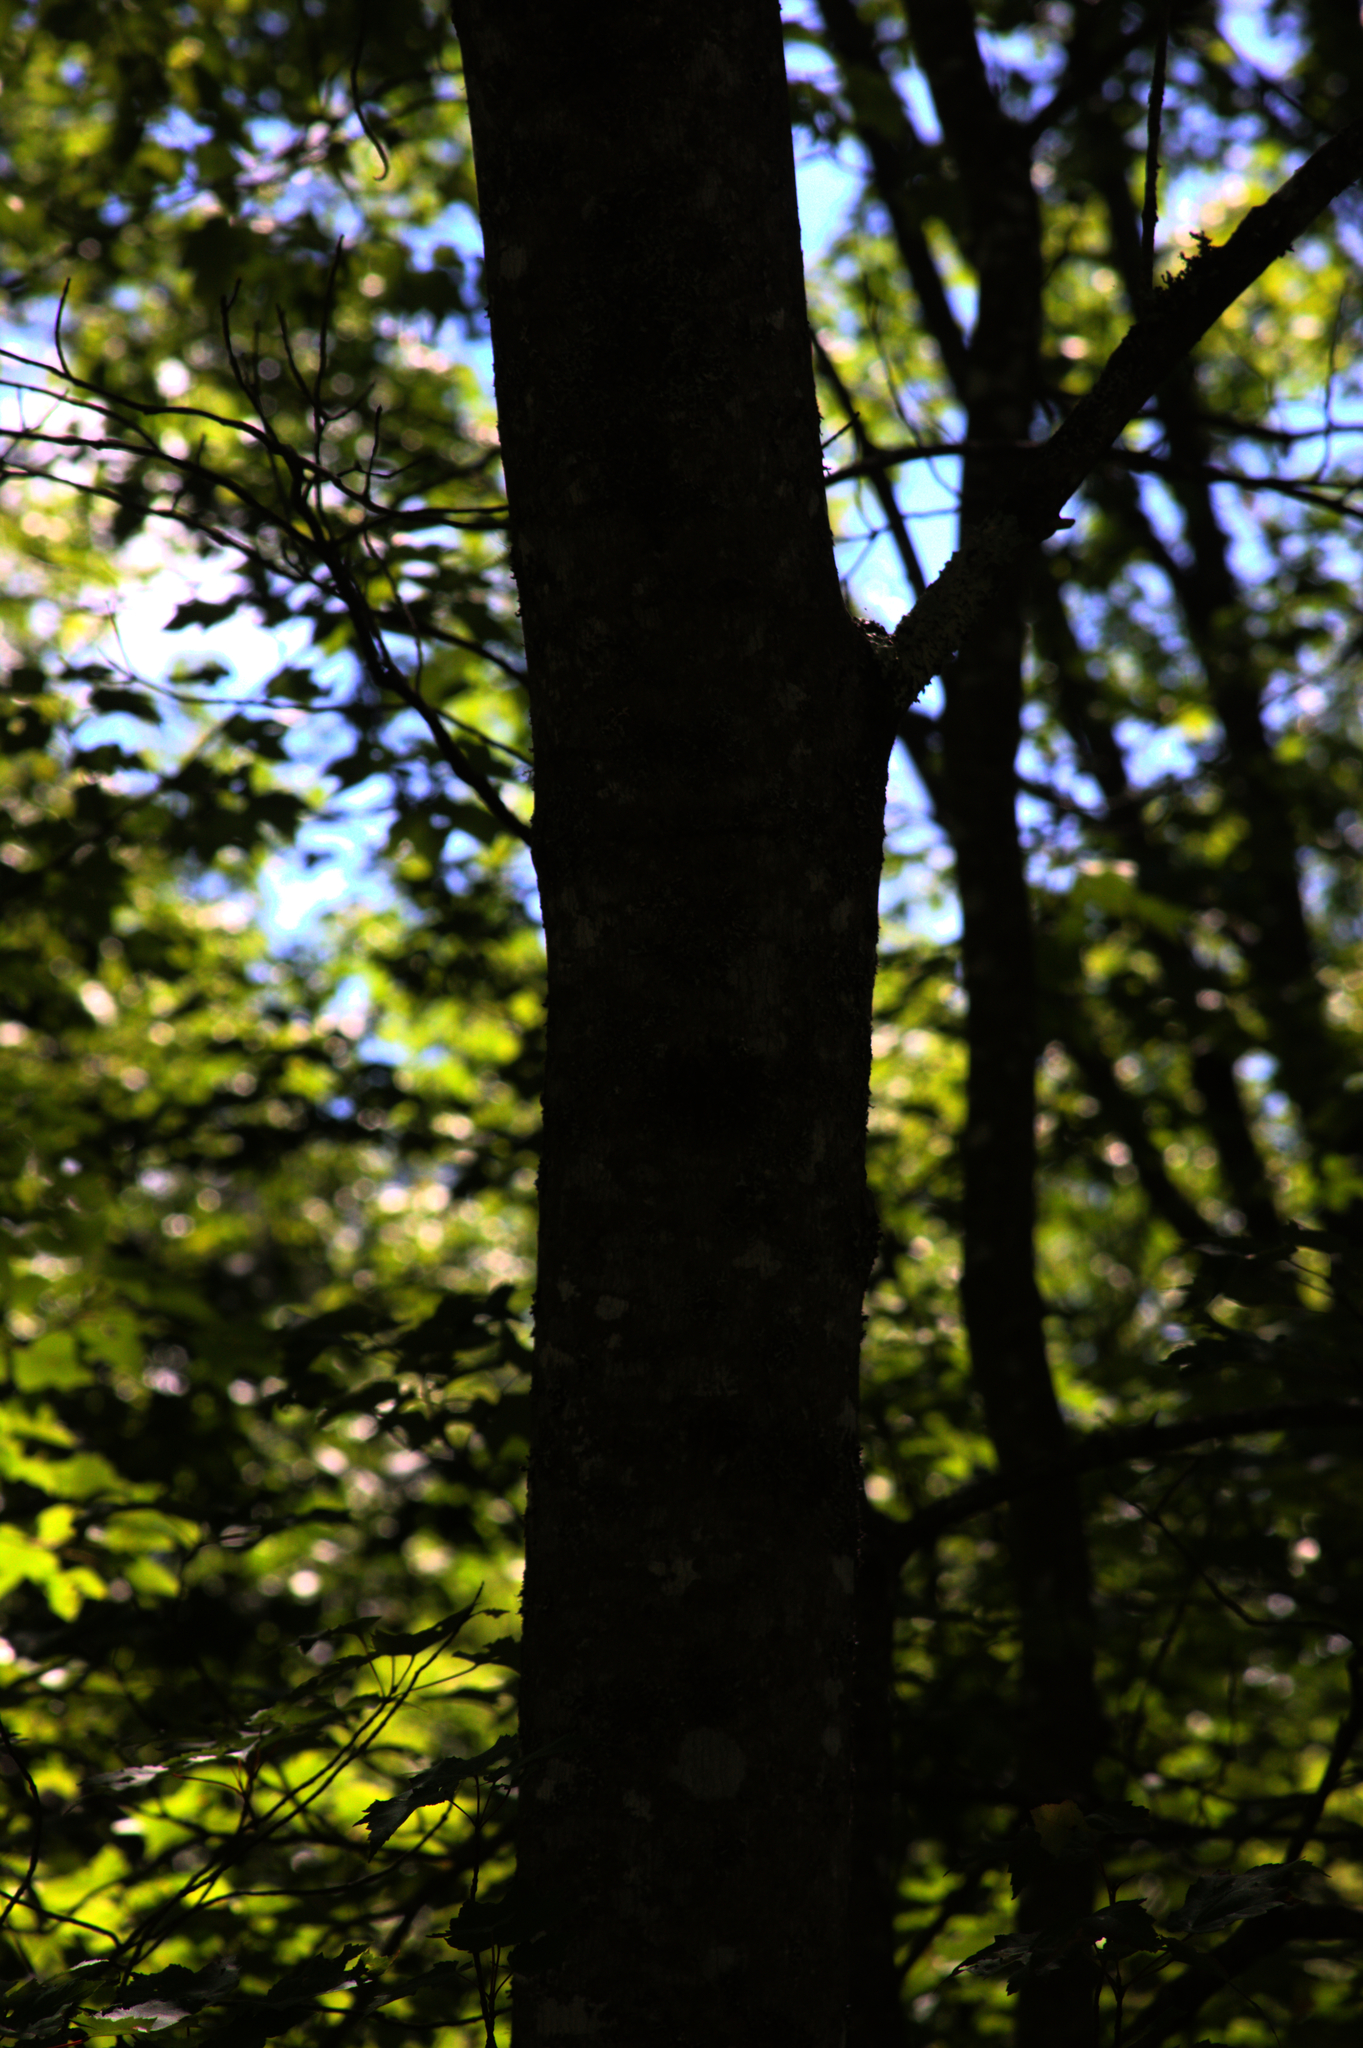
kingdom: Plantae
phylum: Tracheophyta
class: Magnoliopsida
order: Sapindales
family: Sapindaceae
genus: Acer
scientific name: Acer rubrum
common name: Red maple
